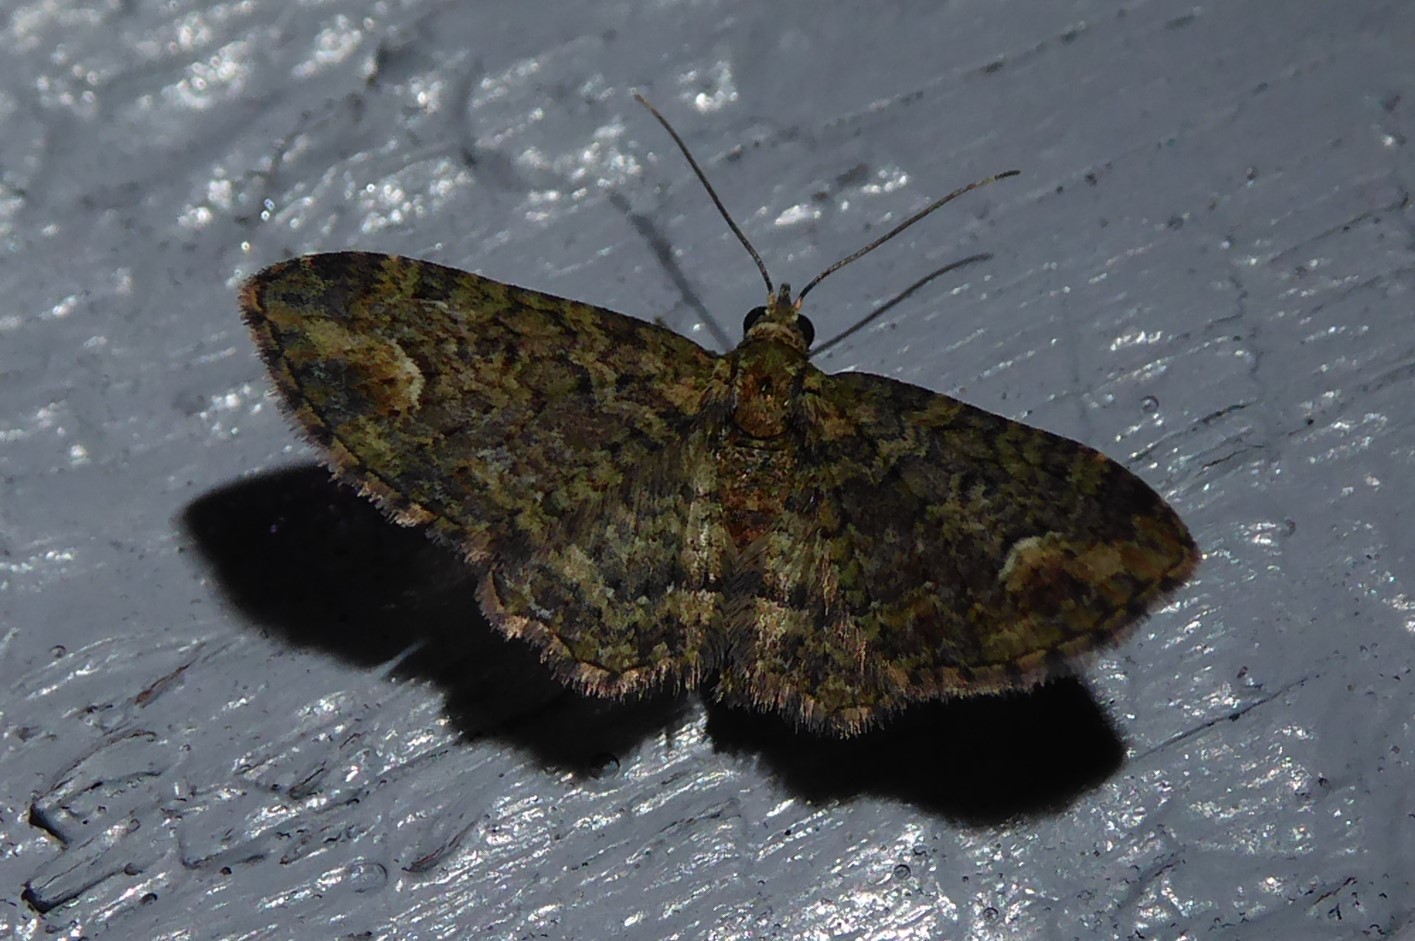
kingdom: Animalia
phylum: Arthropoda
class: Insecta
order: Lepidoptera
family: Geometridae
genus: Idaea
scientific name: Idaea mutanda
